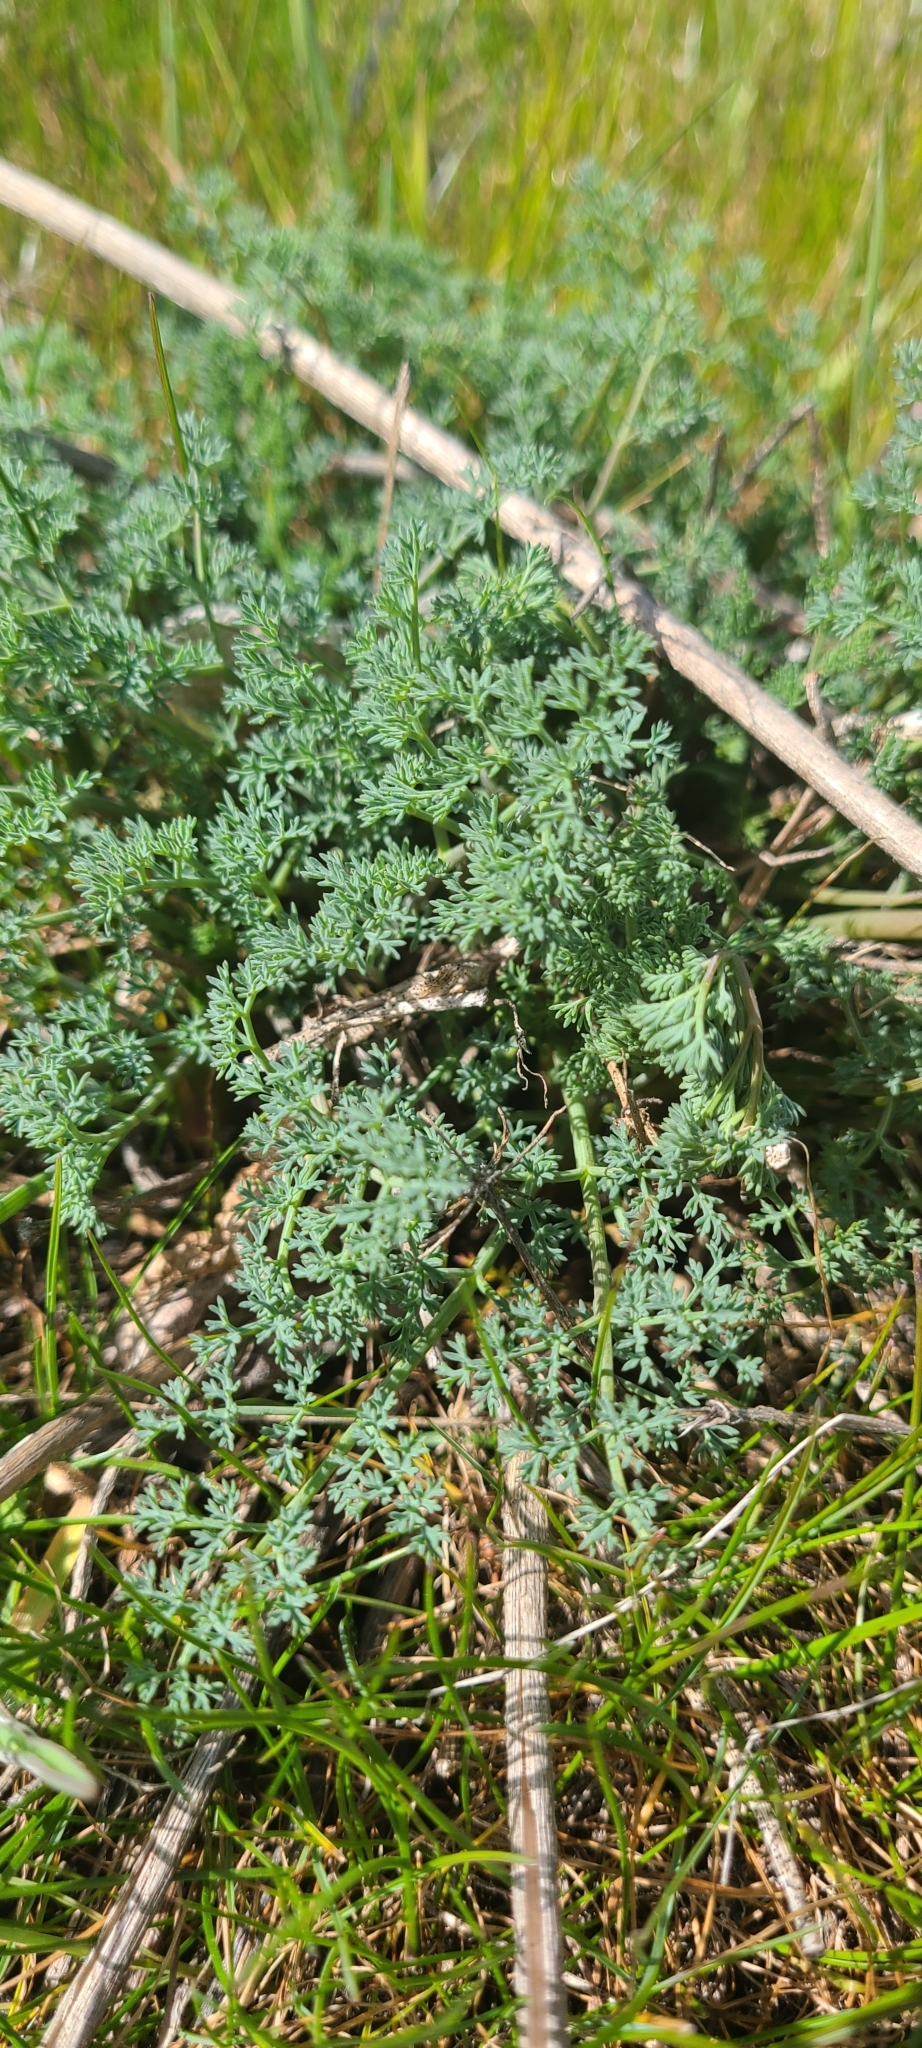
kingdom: Plantae
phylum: Tracheophyta
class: Magnoliopsida
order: Apiales
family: Apiaceae
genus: Lomatium
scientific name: Lomatium papilioniferum
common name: Butterfly lomatium
